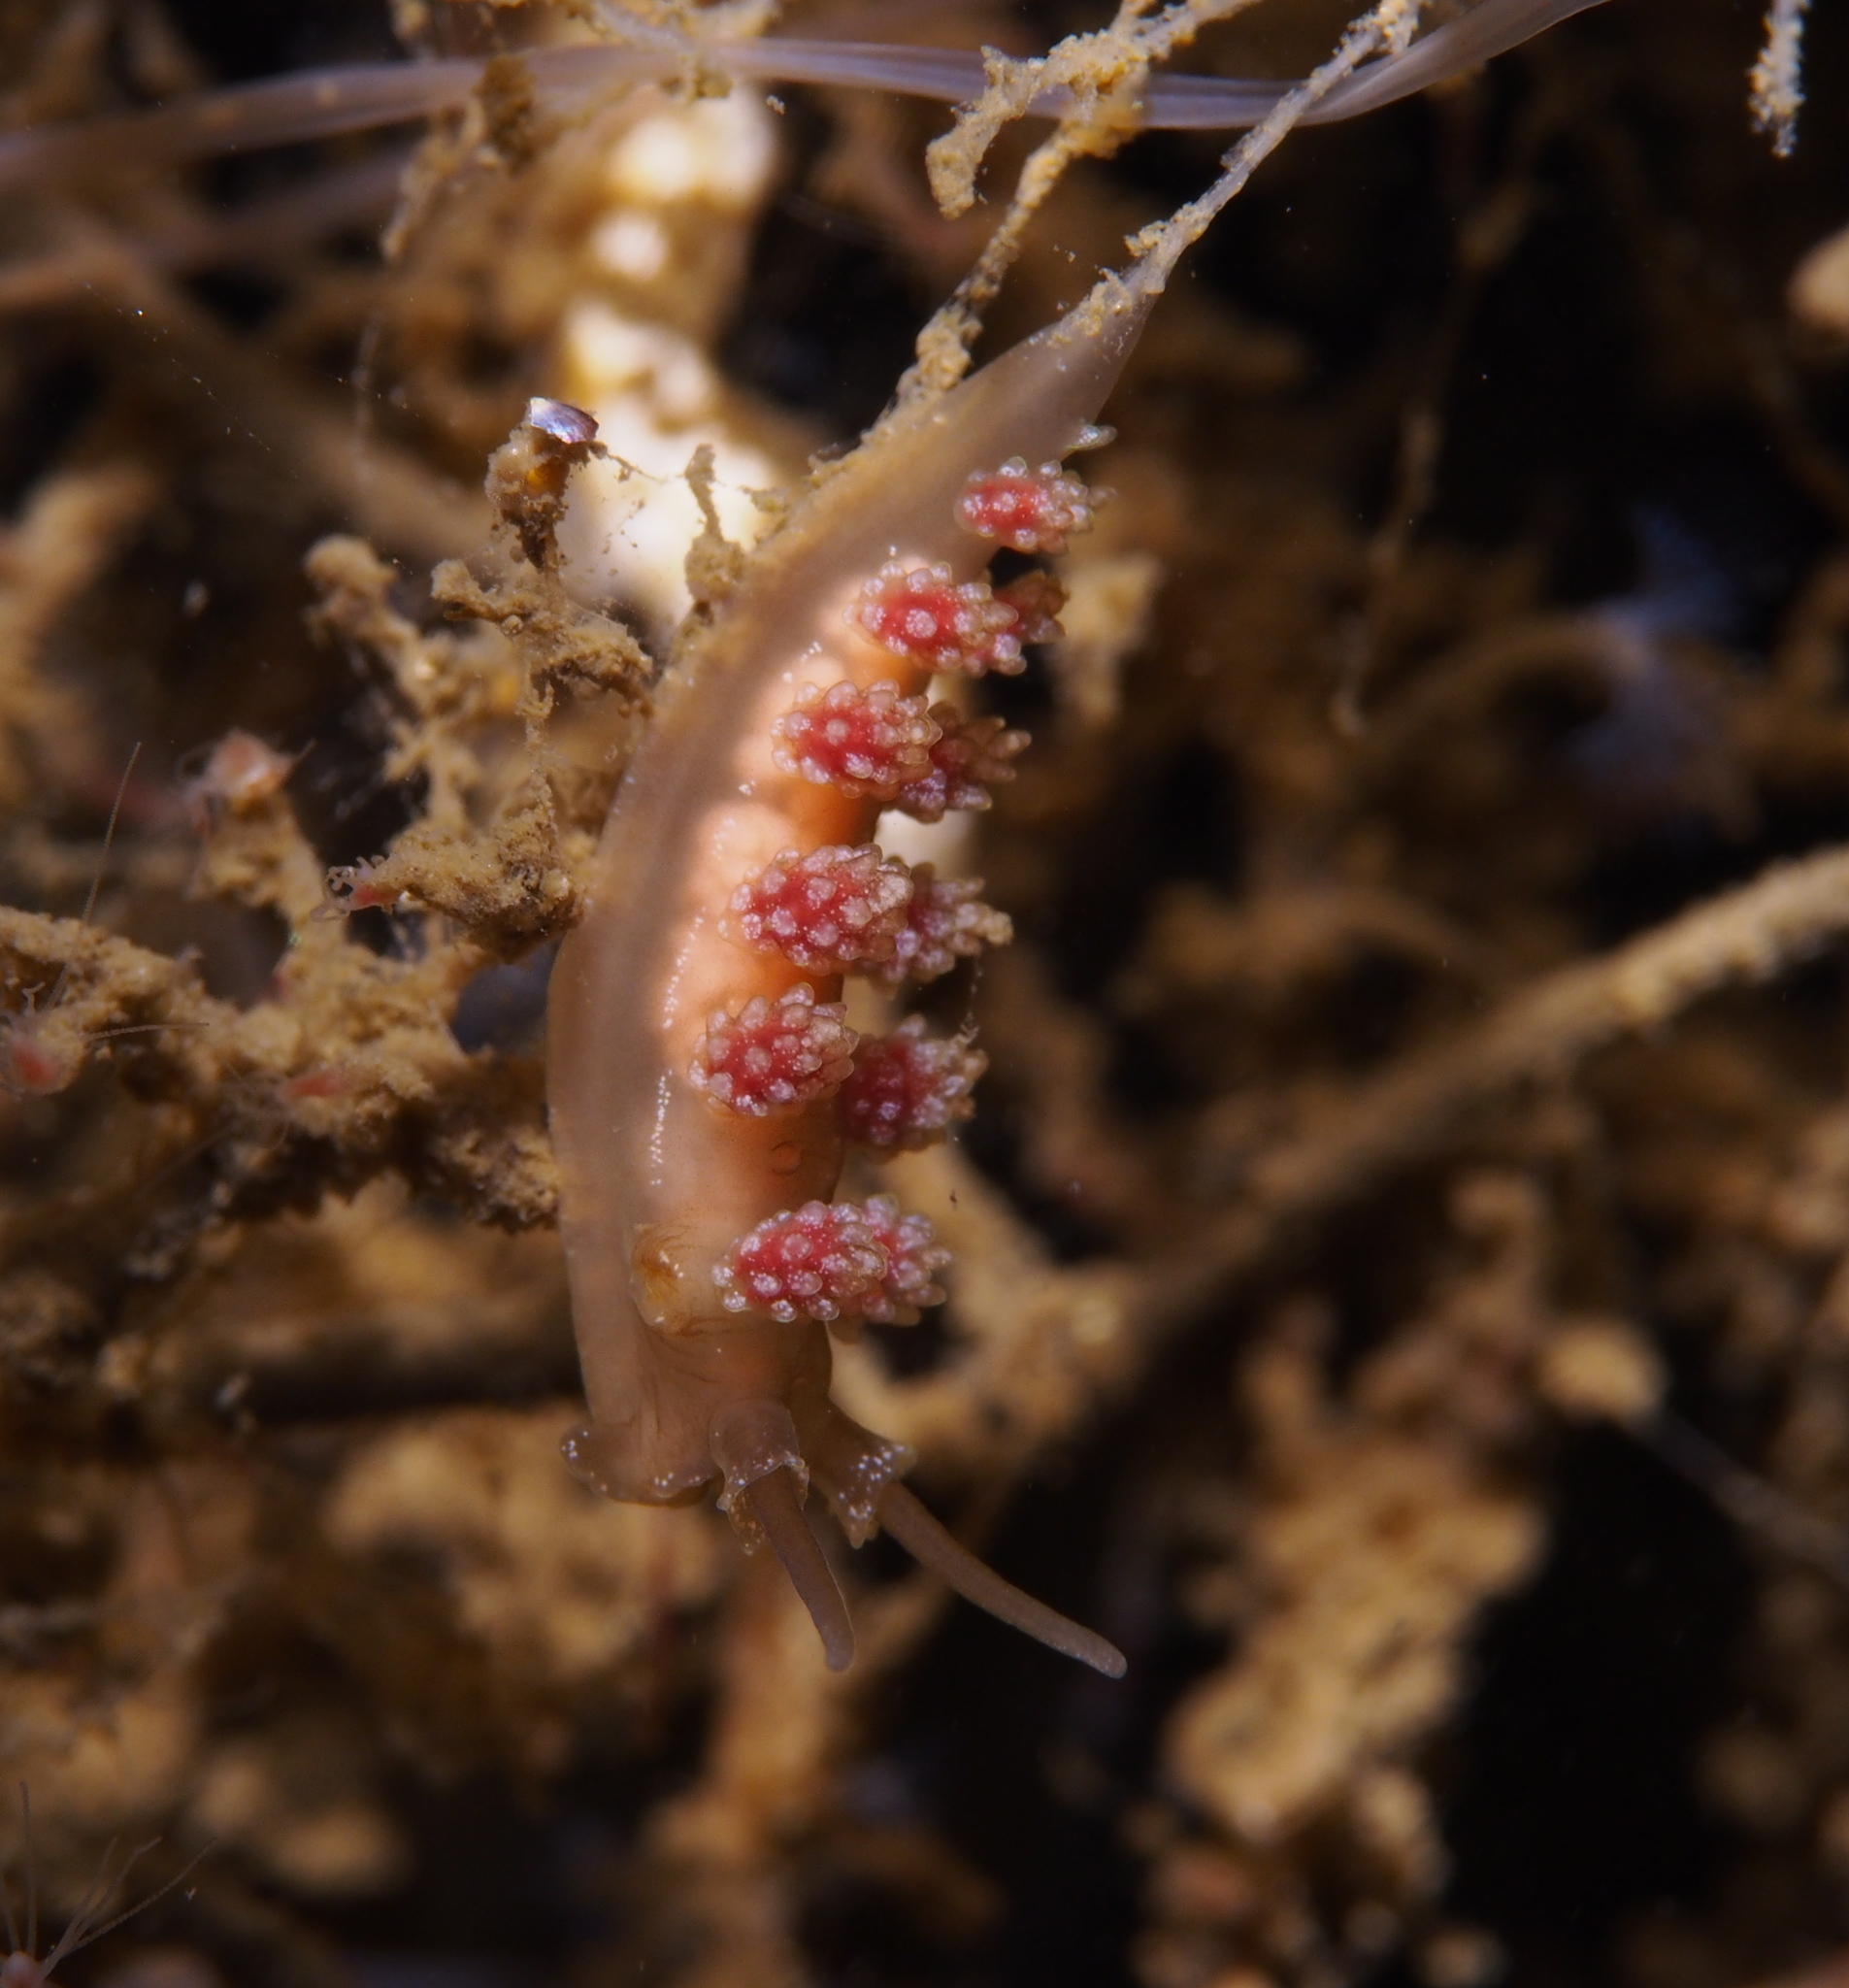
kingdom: Animalia
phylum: Mollusca
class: Gastropoda
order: Nudibranchia
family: Dotidae
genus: Doto
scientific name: Doto fragilis
